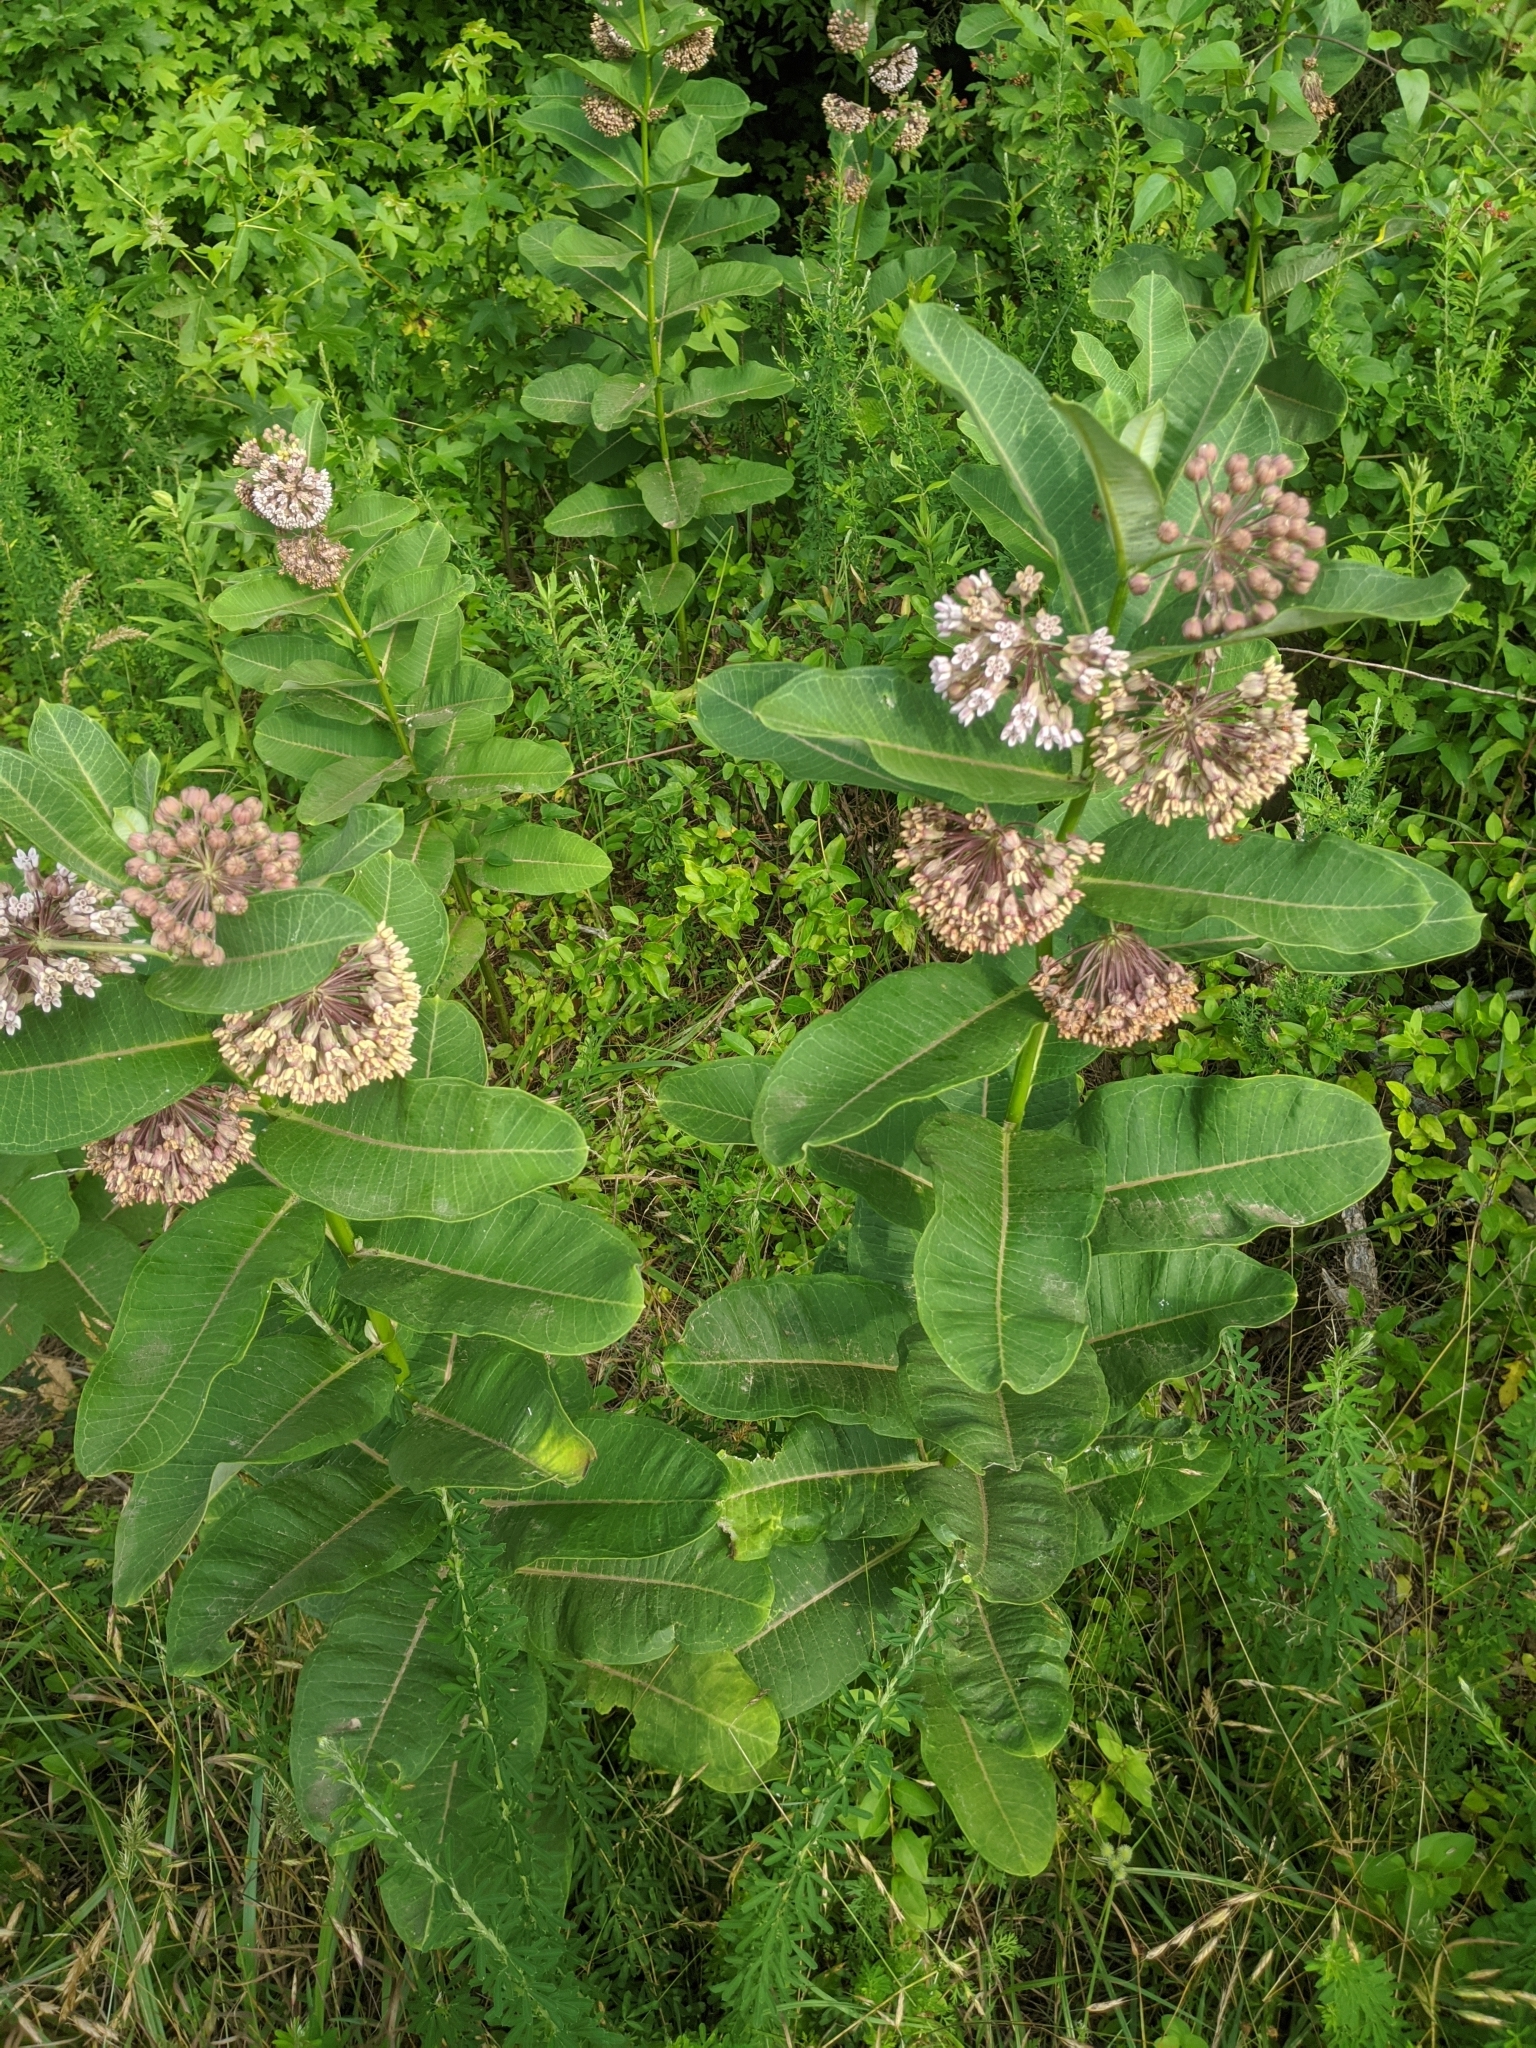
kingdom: Plantae
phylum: Tracheophyta
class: Magnoliopsida
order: Gentianales
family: Apocynaceae
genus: Asclepias
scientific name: Asclepias syriaca
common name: Common milkweed
